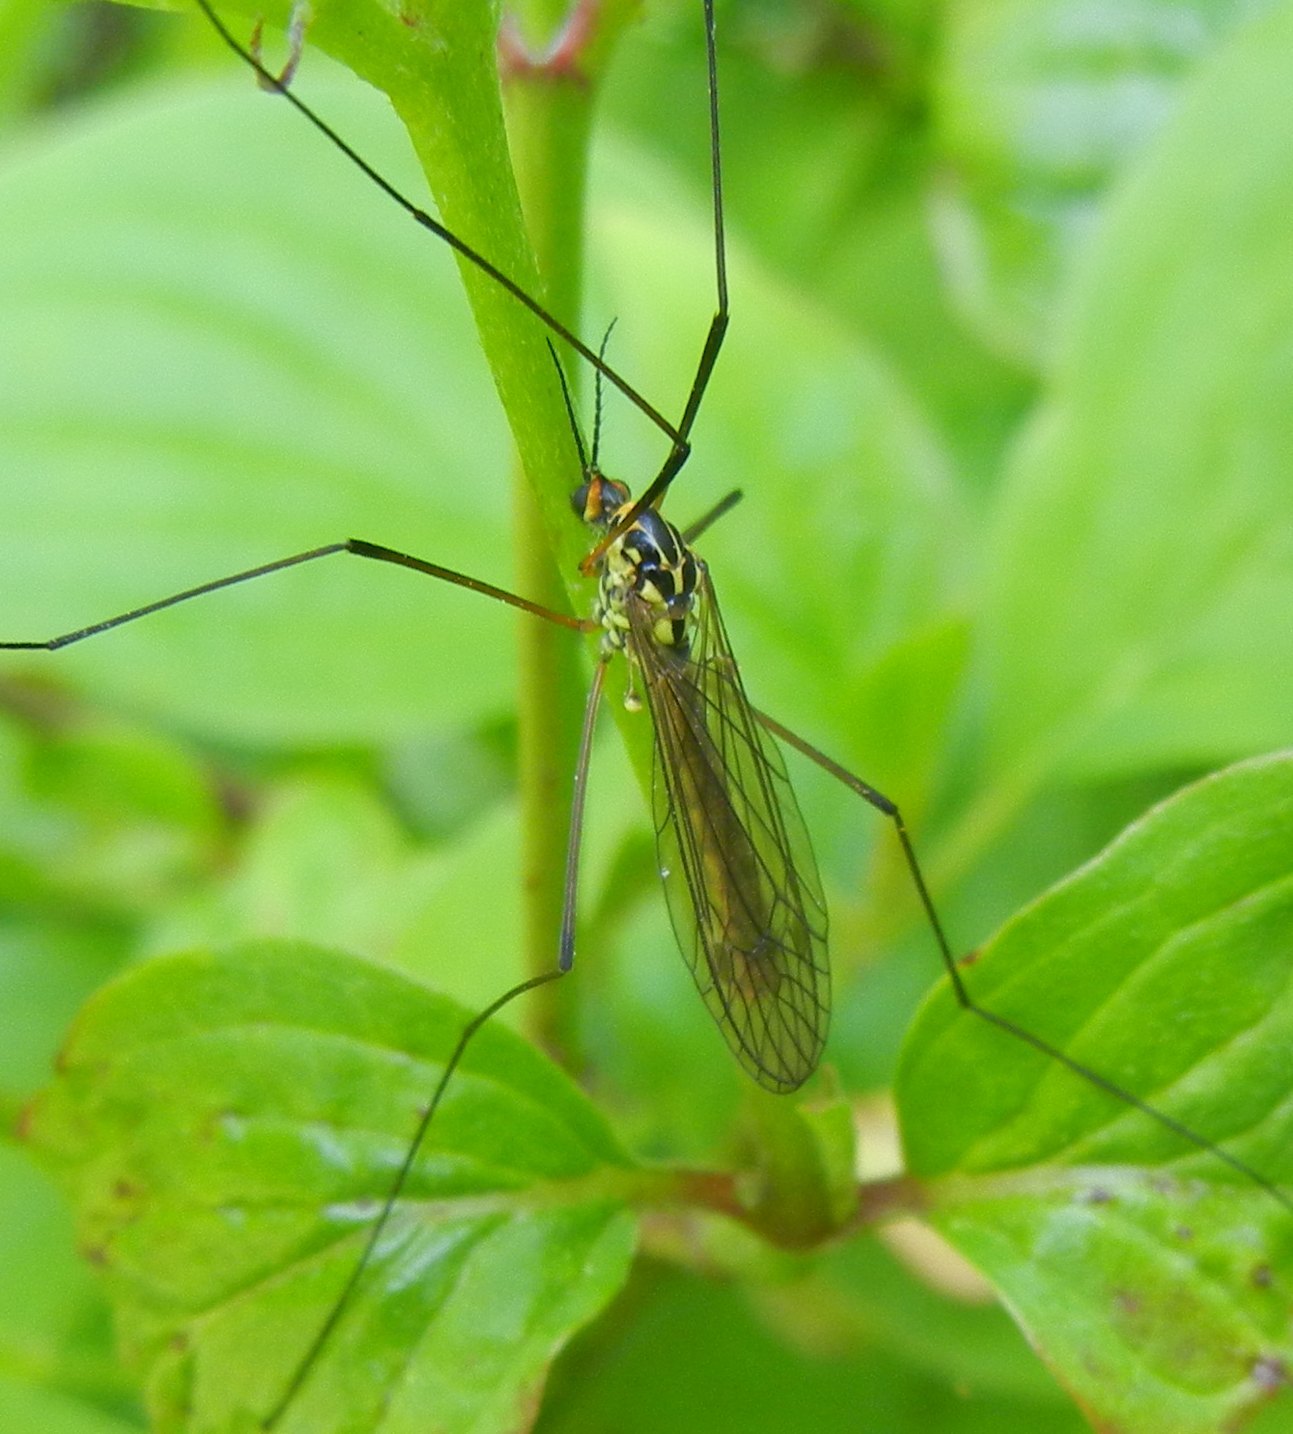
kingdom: Animalia
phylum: Arthropoda
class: Insecta
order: Diptera
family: Tipulidae
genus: Nephrotoma
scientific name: Nephrotoma appendiculata
